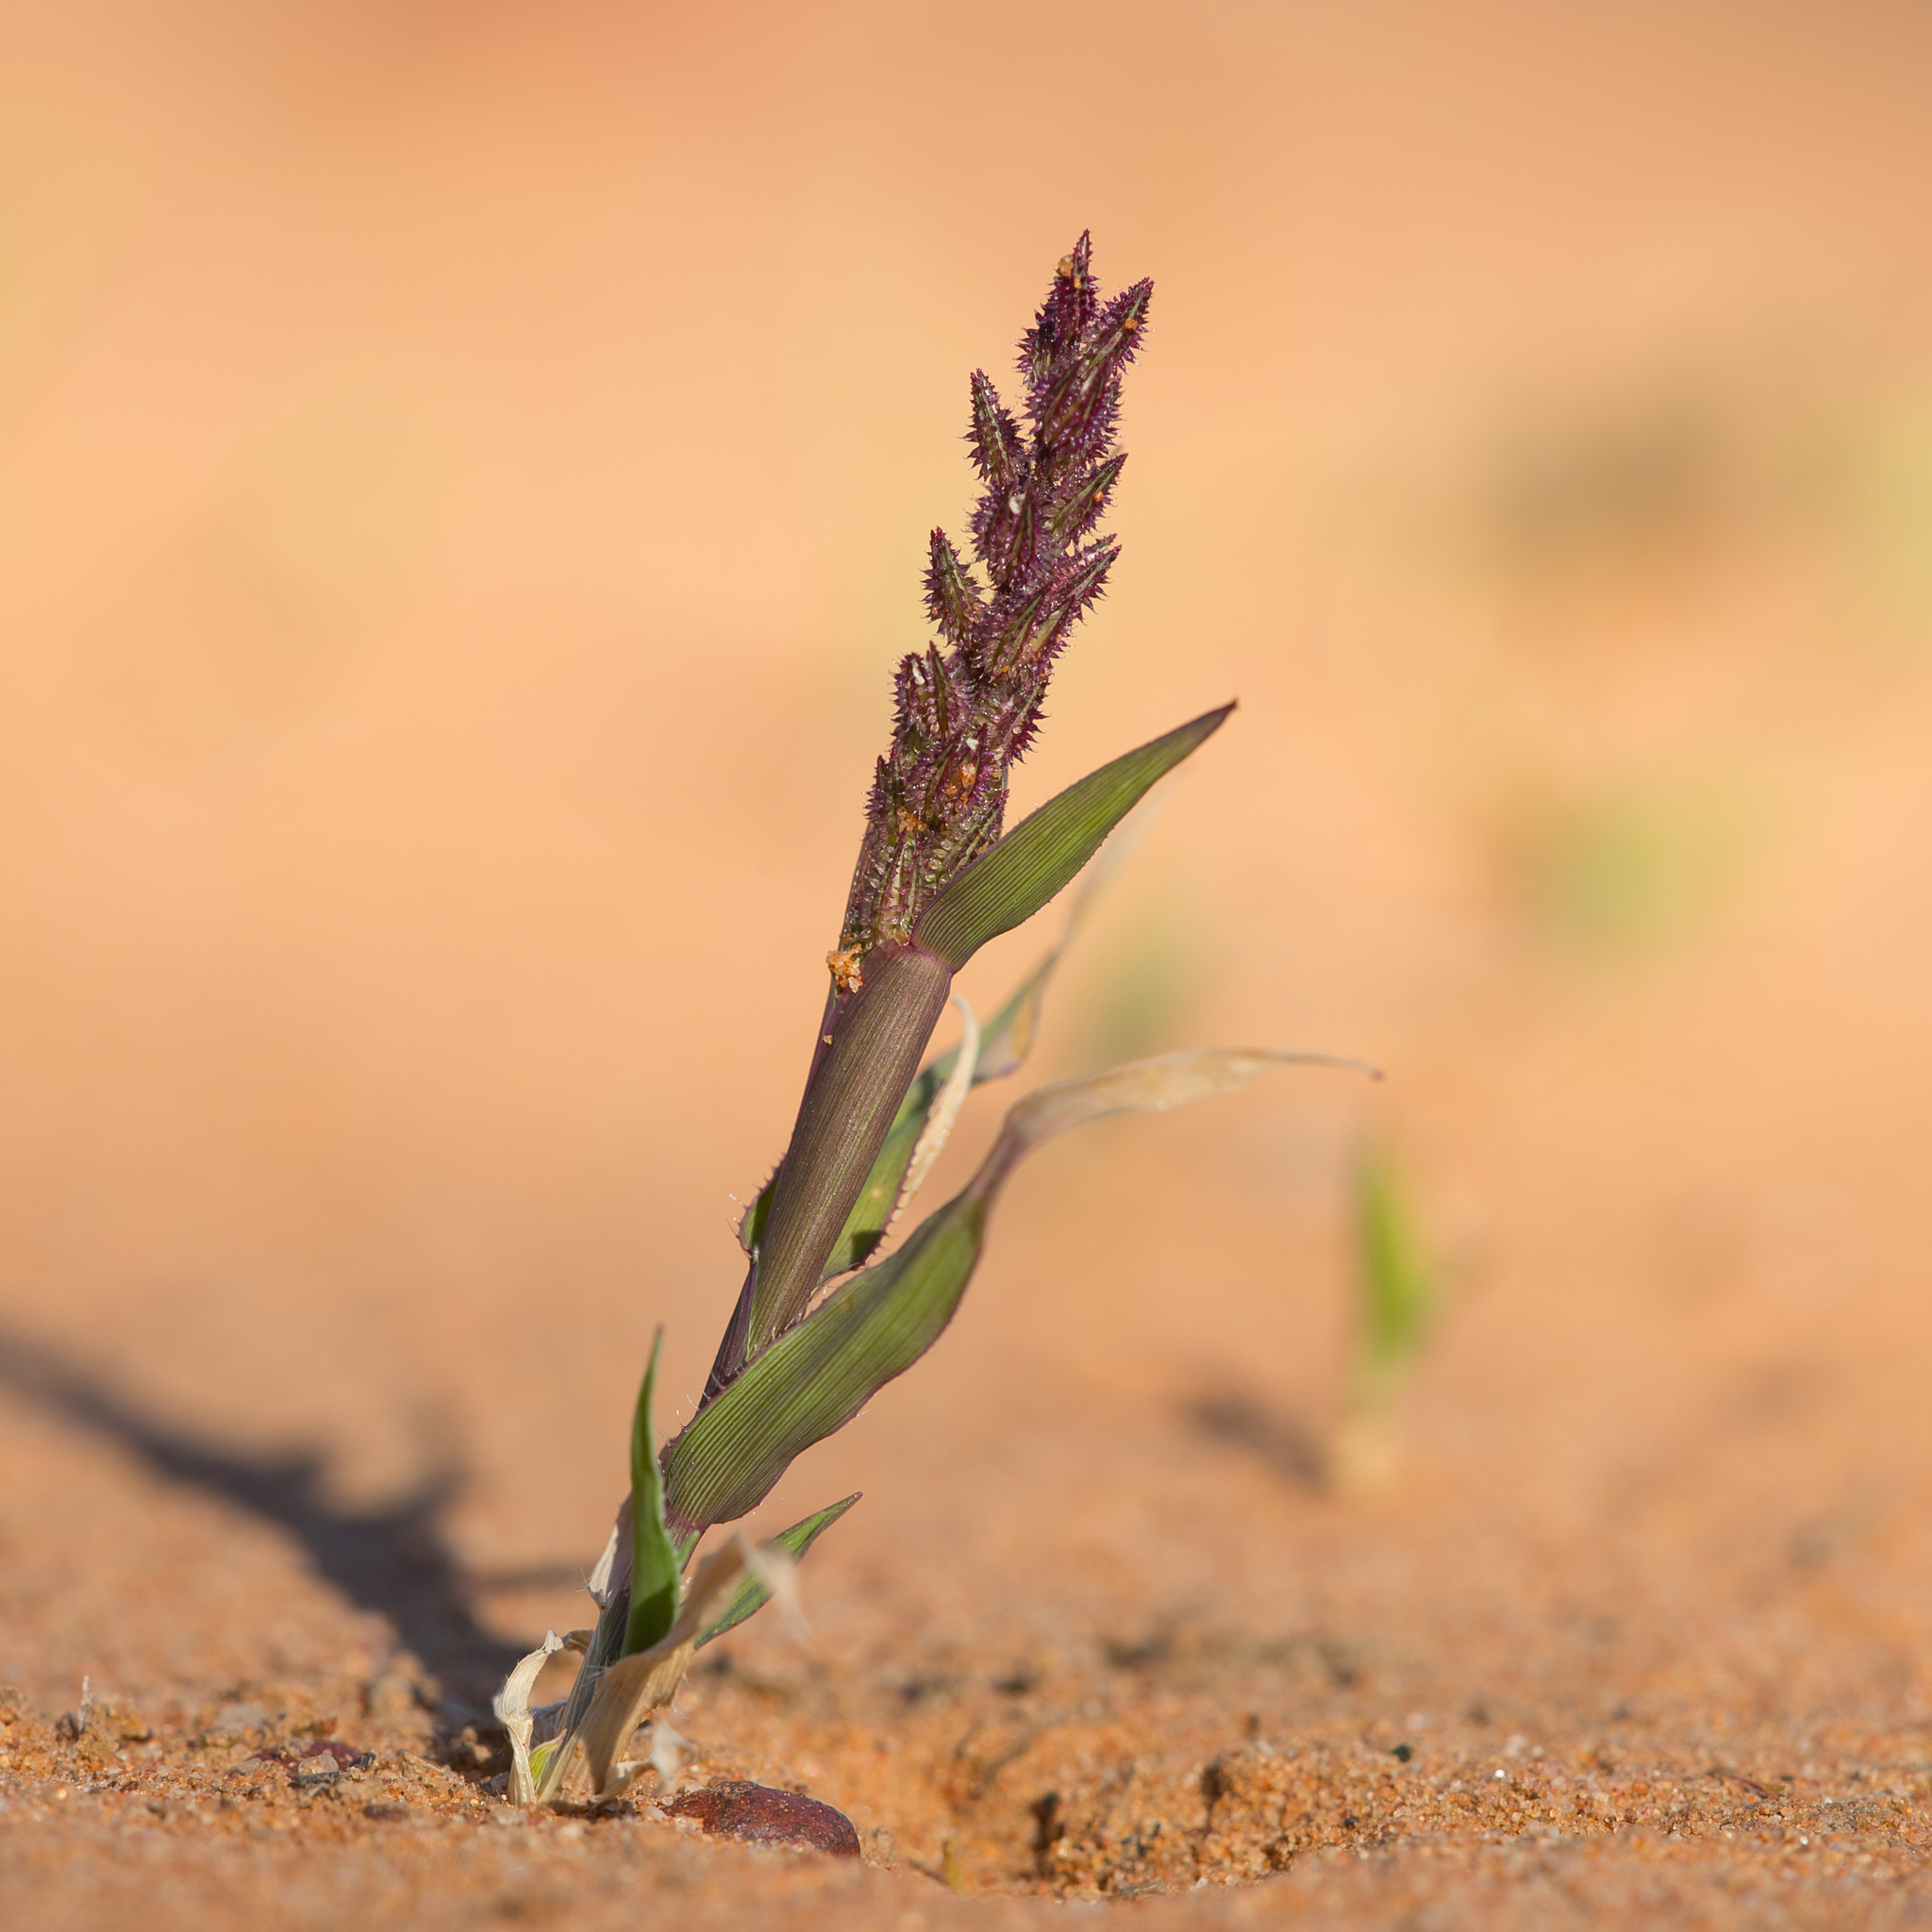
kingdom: Plantae
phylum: Tracheophyta
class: Liliopsida
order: Poales
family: Poaceae
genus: Tragus
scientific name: Tragus australianus
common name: Australian bur-grass
